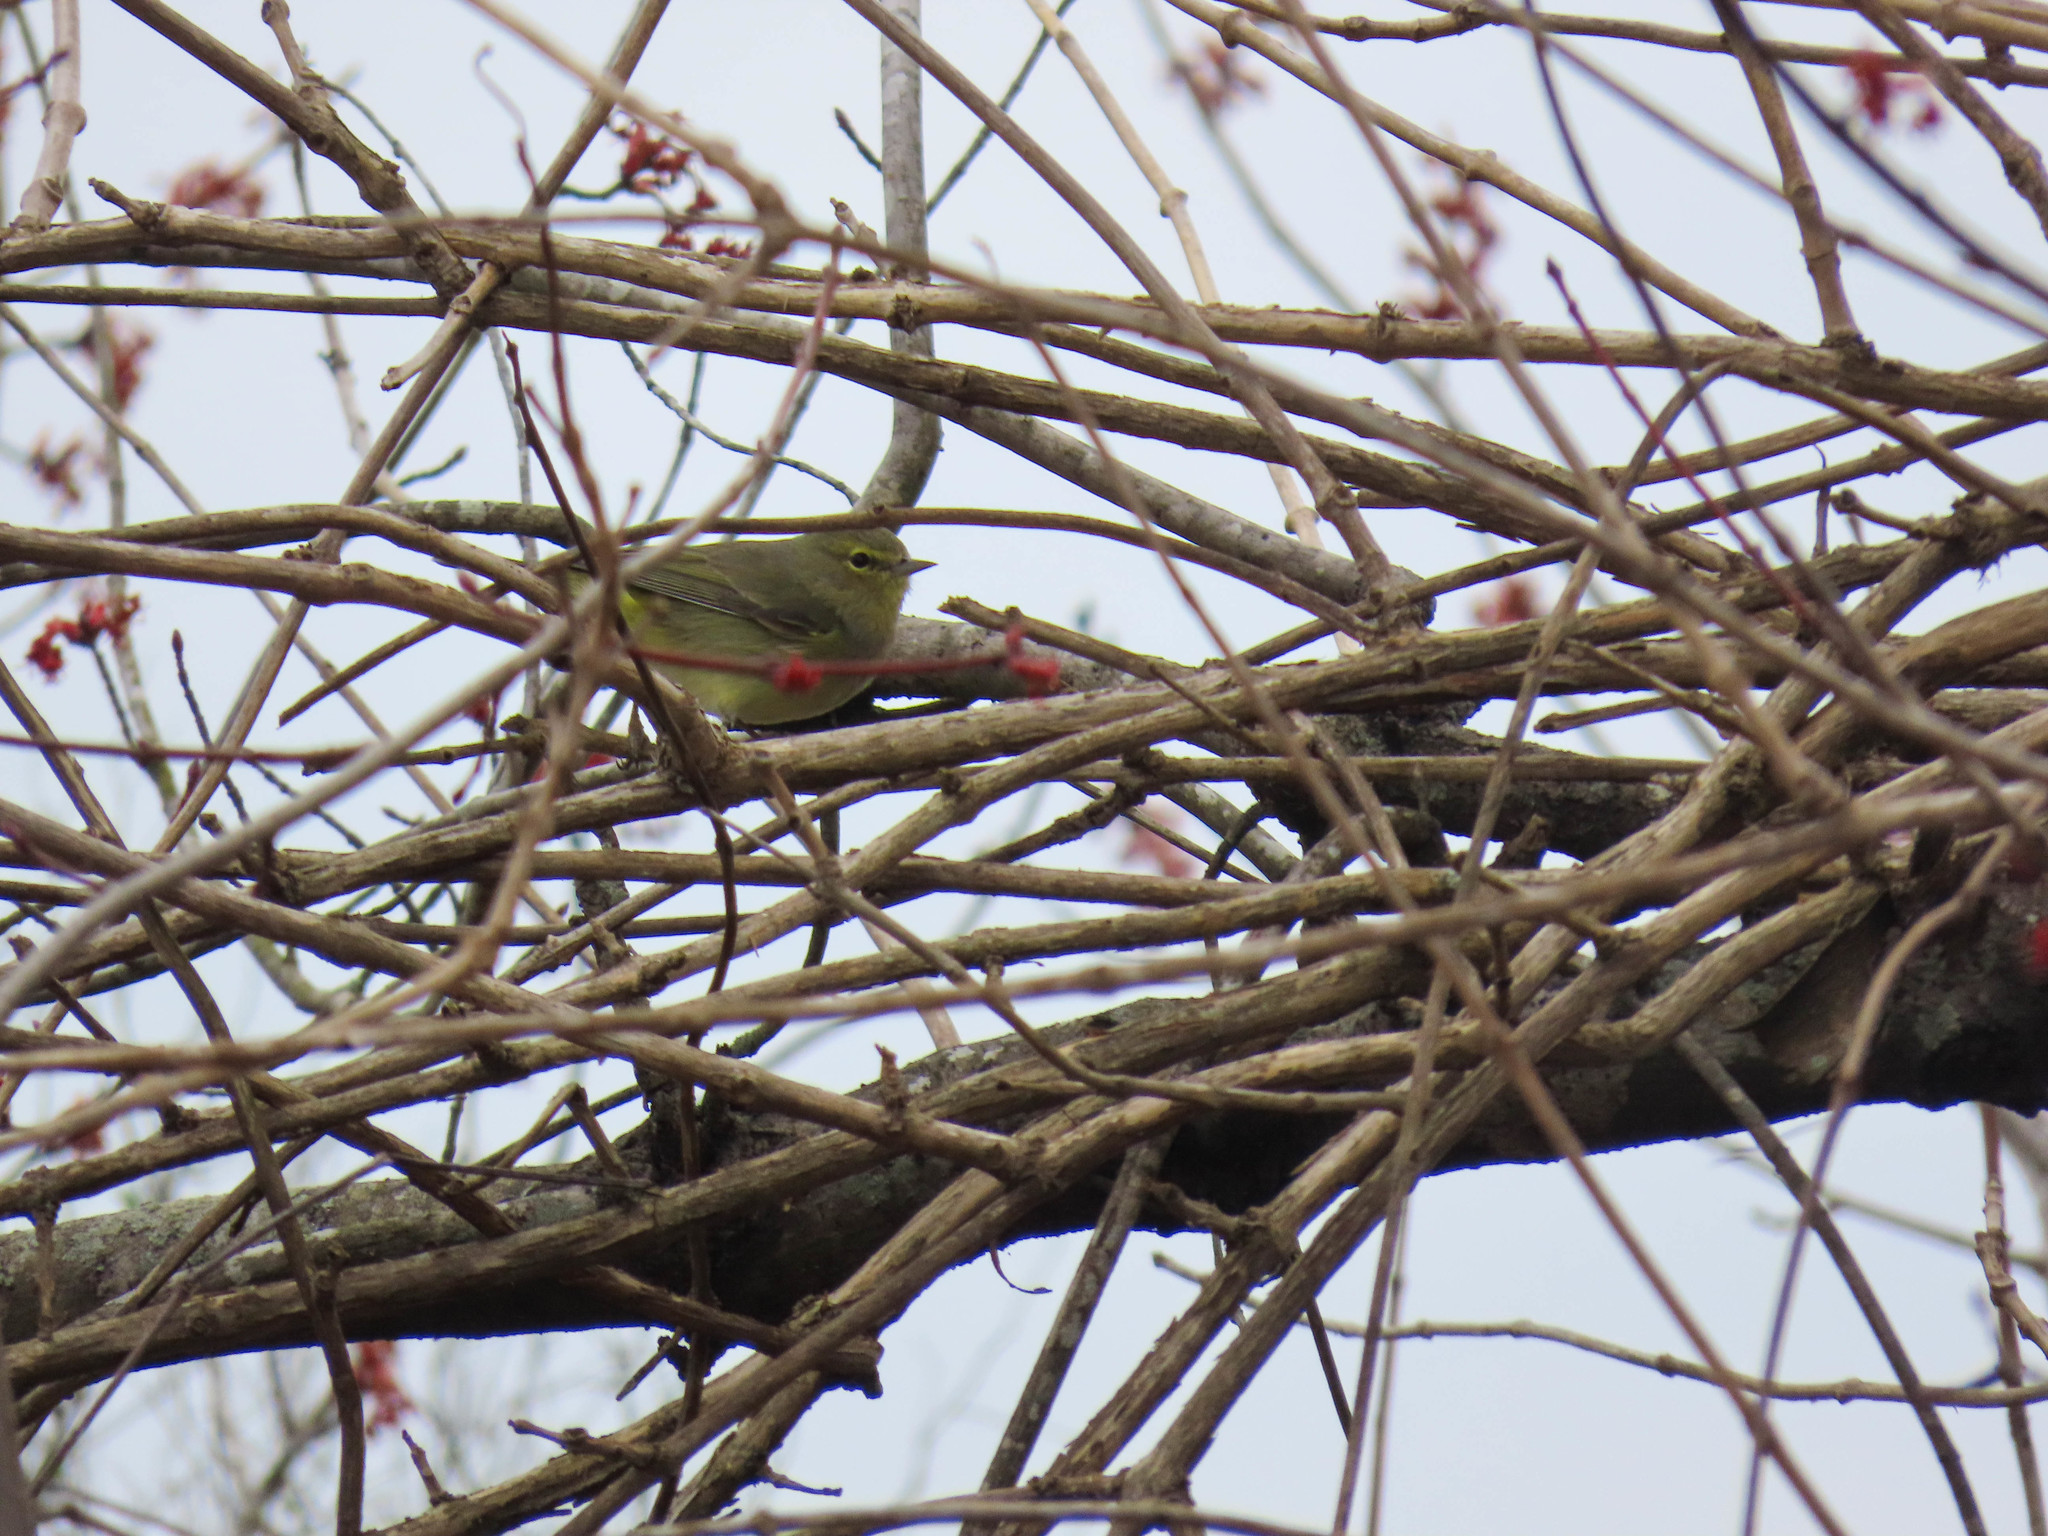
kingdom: Animalia
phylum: Chordata
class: Aves
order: Passeriformes
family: Parulidae
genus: Leiothlypis
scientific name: Leiothlypis celata
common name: Orange-crowned warbler
